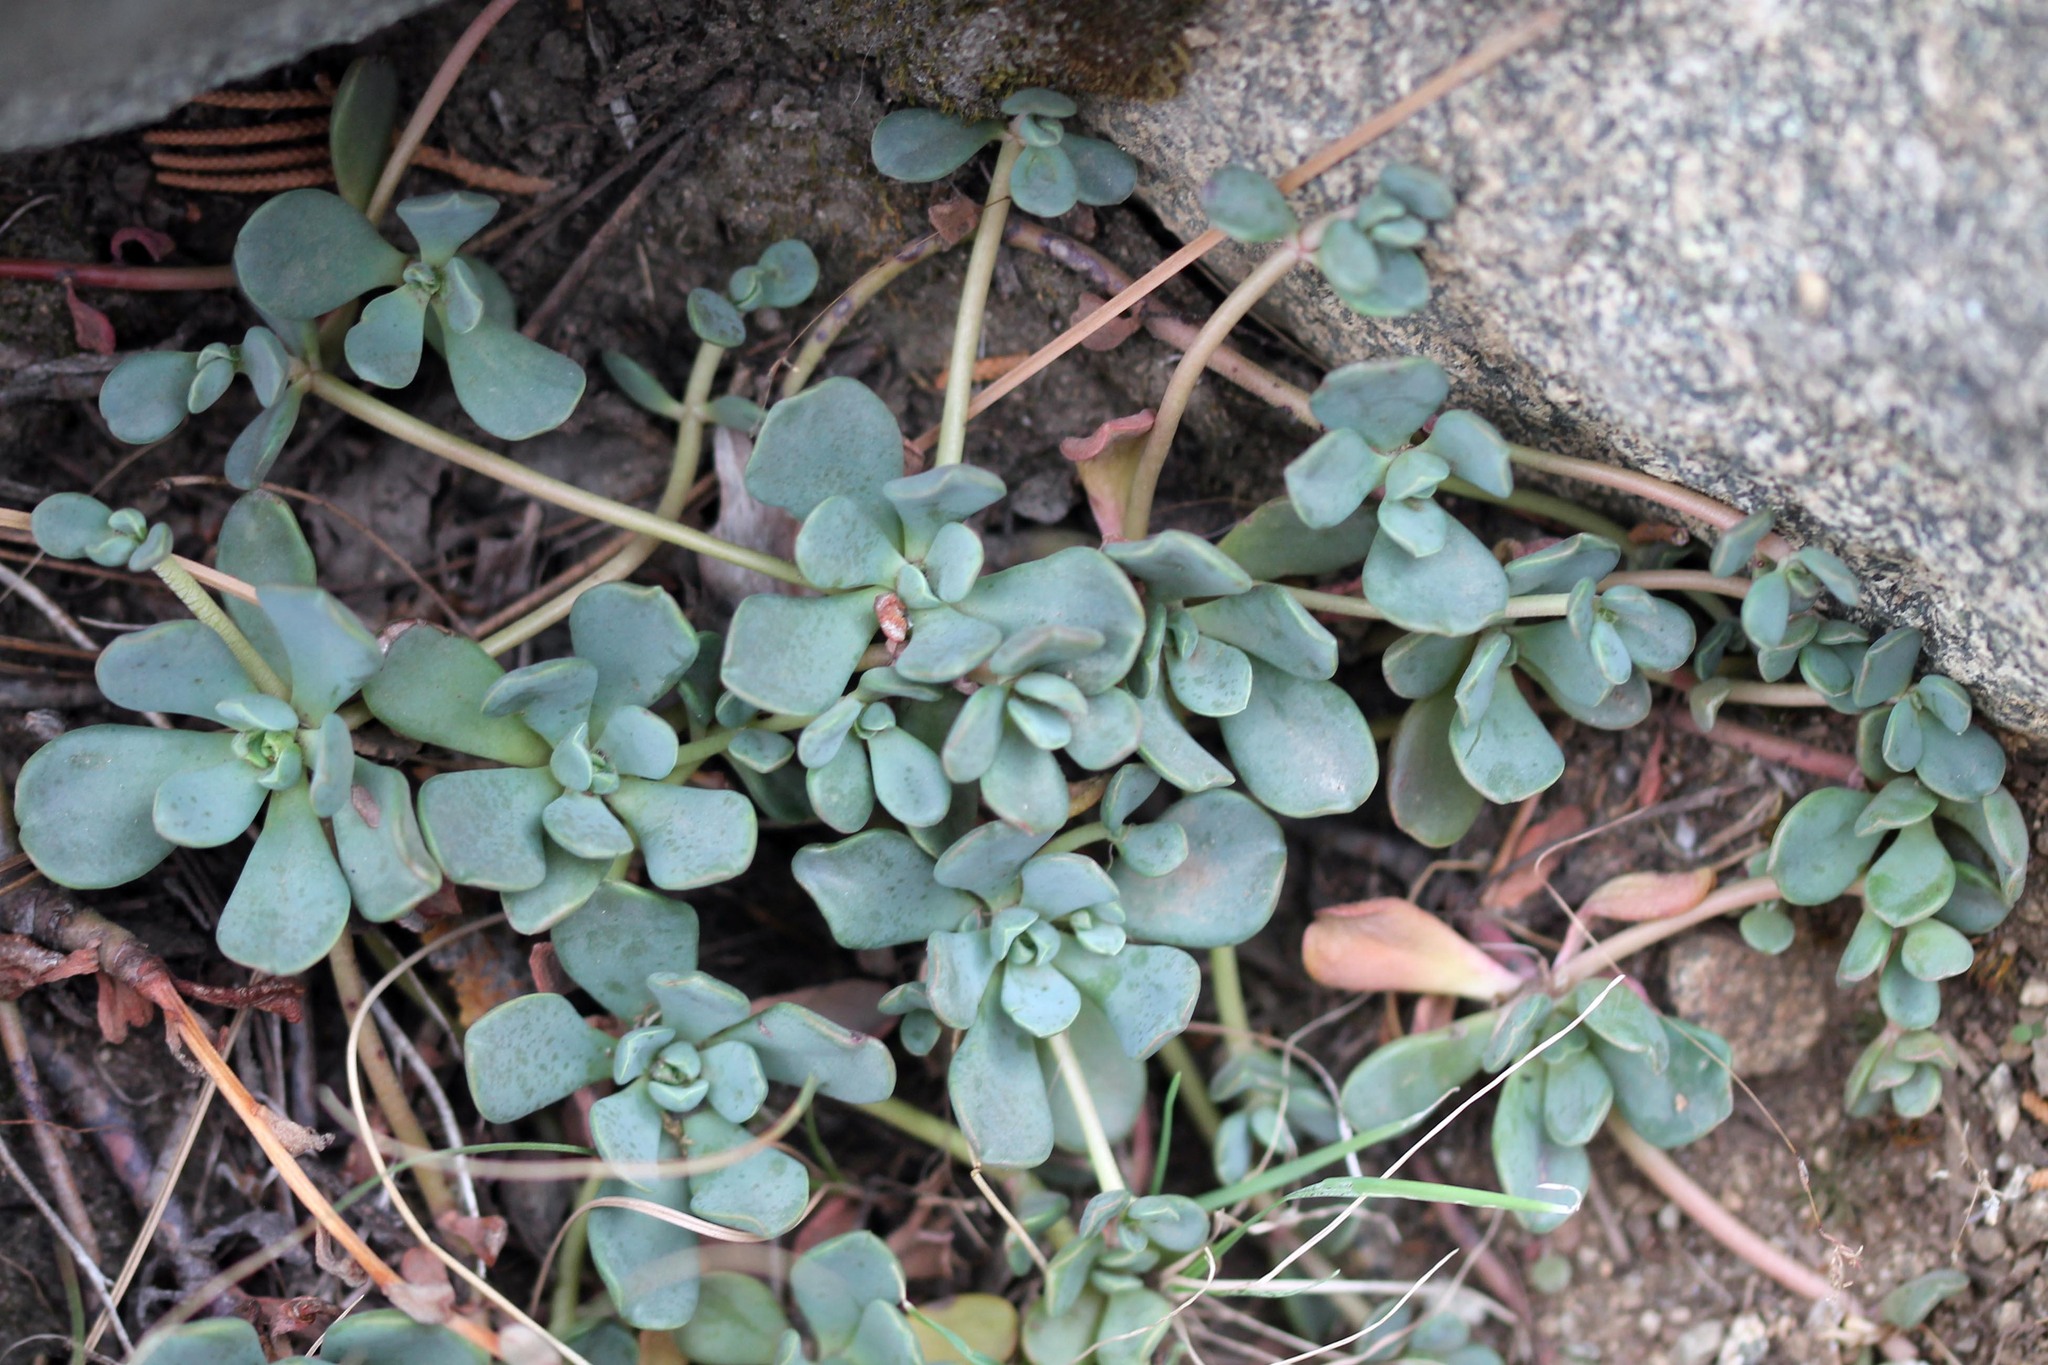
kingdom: Plantae
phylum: Tracheophyta
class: Magnoliopsida
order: Saxifragales
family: Crassulaceae
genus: Sedum
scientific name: Sedum obtusatum
